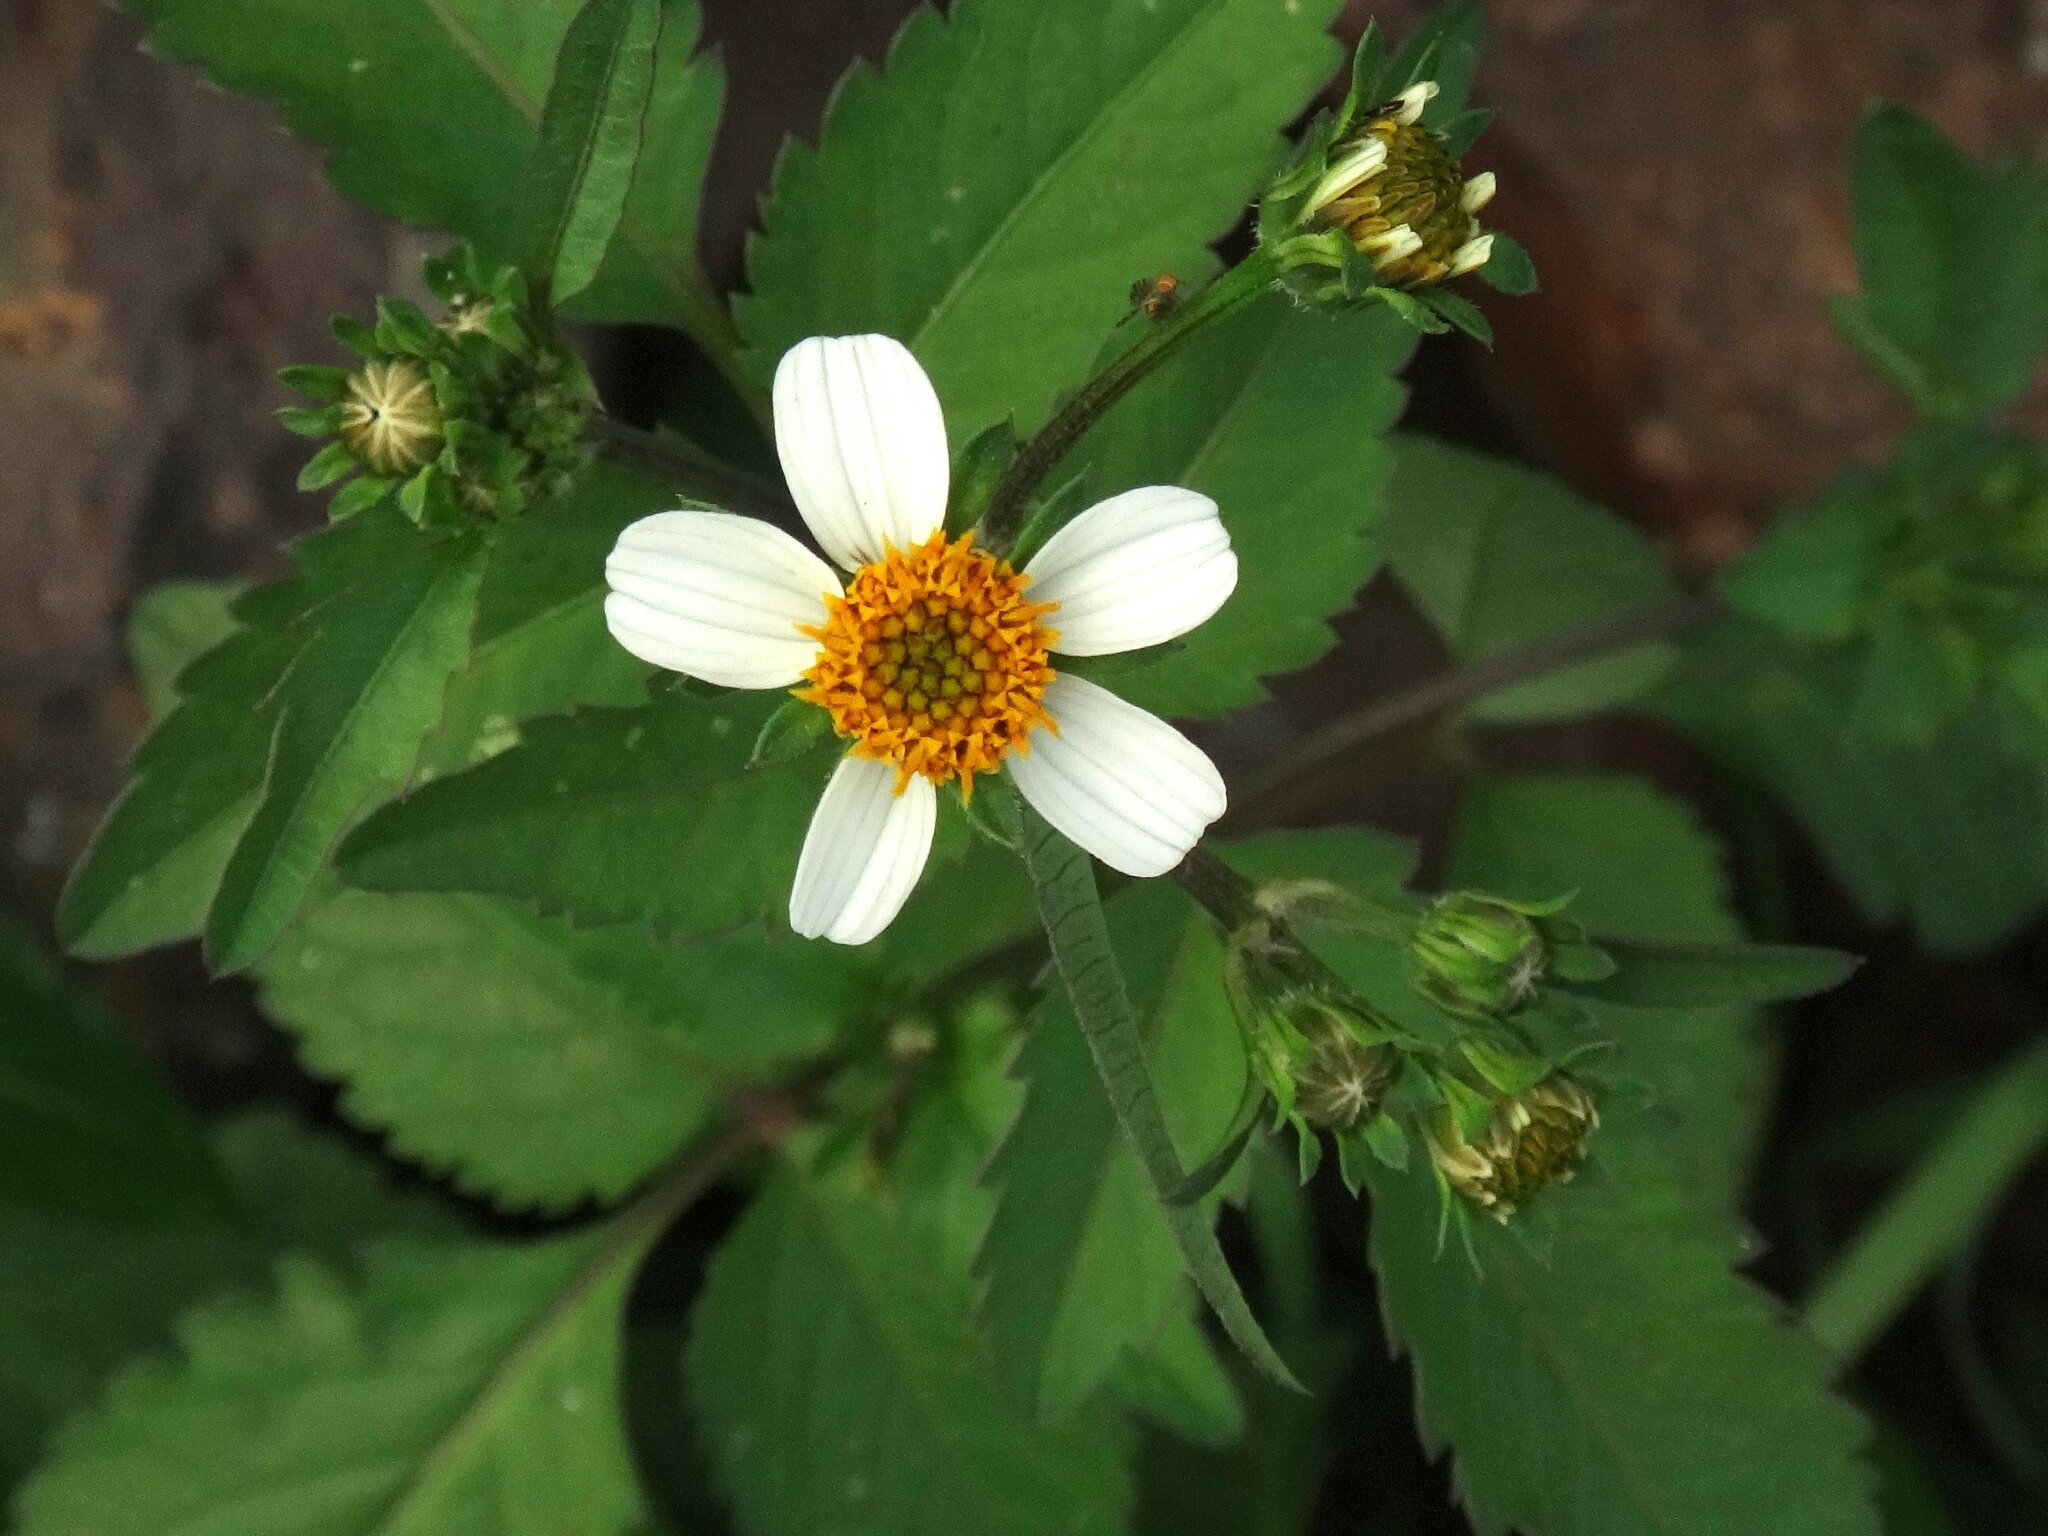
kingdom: Plantae
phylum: Tracheophyta
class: Magnoliopsida
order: Asterales
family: Asteraceae
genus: Bidens
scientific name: Bidens pilosa
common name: Black-jack
